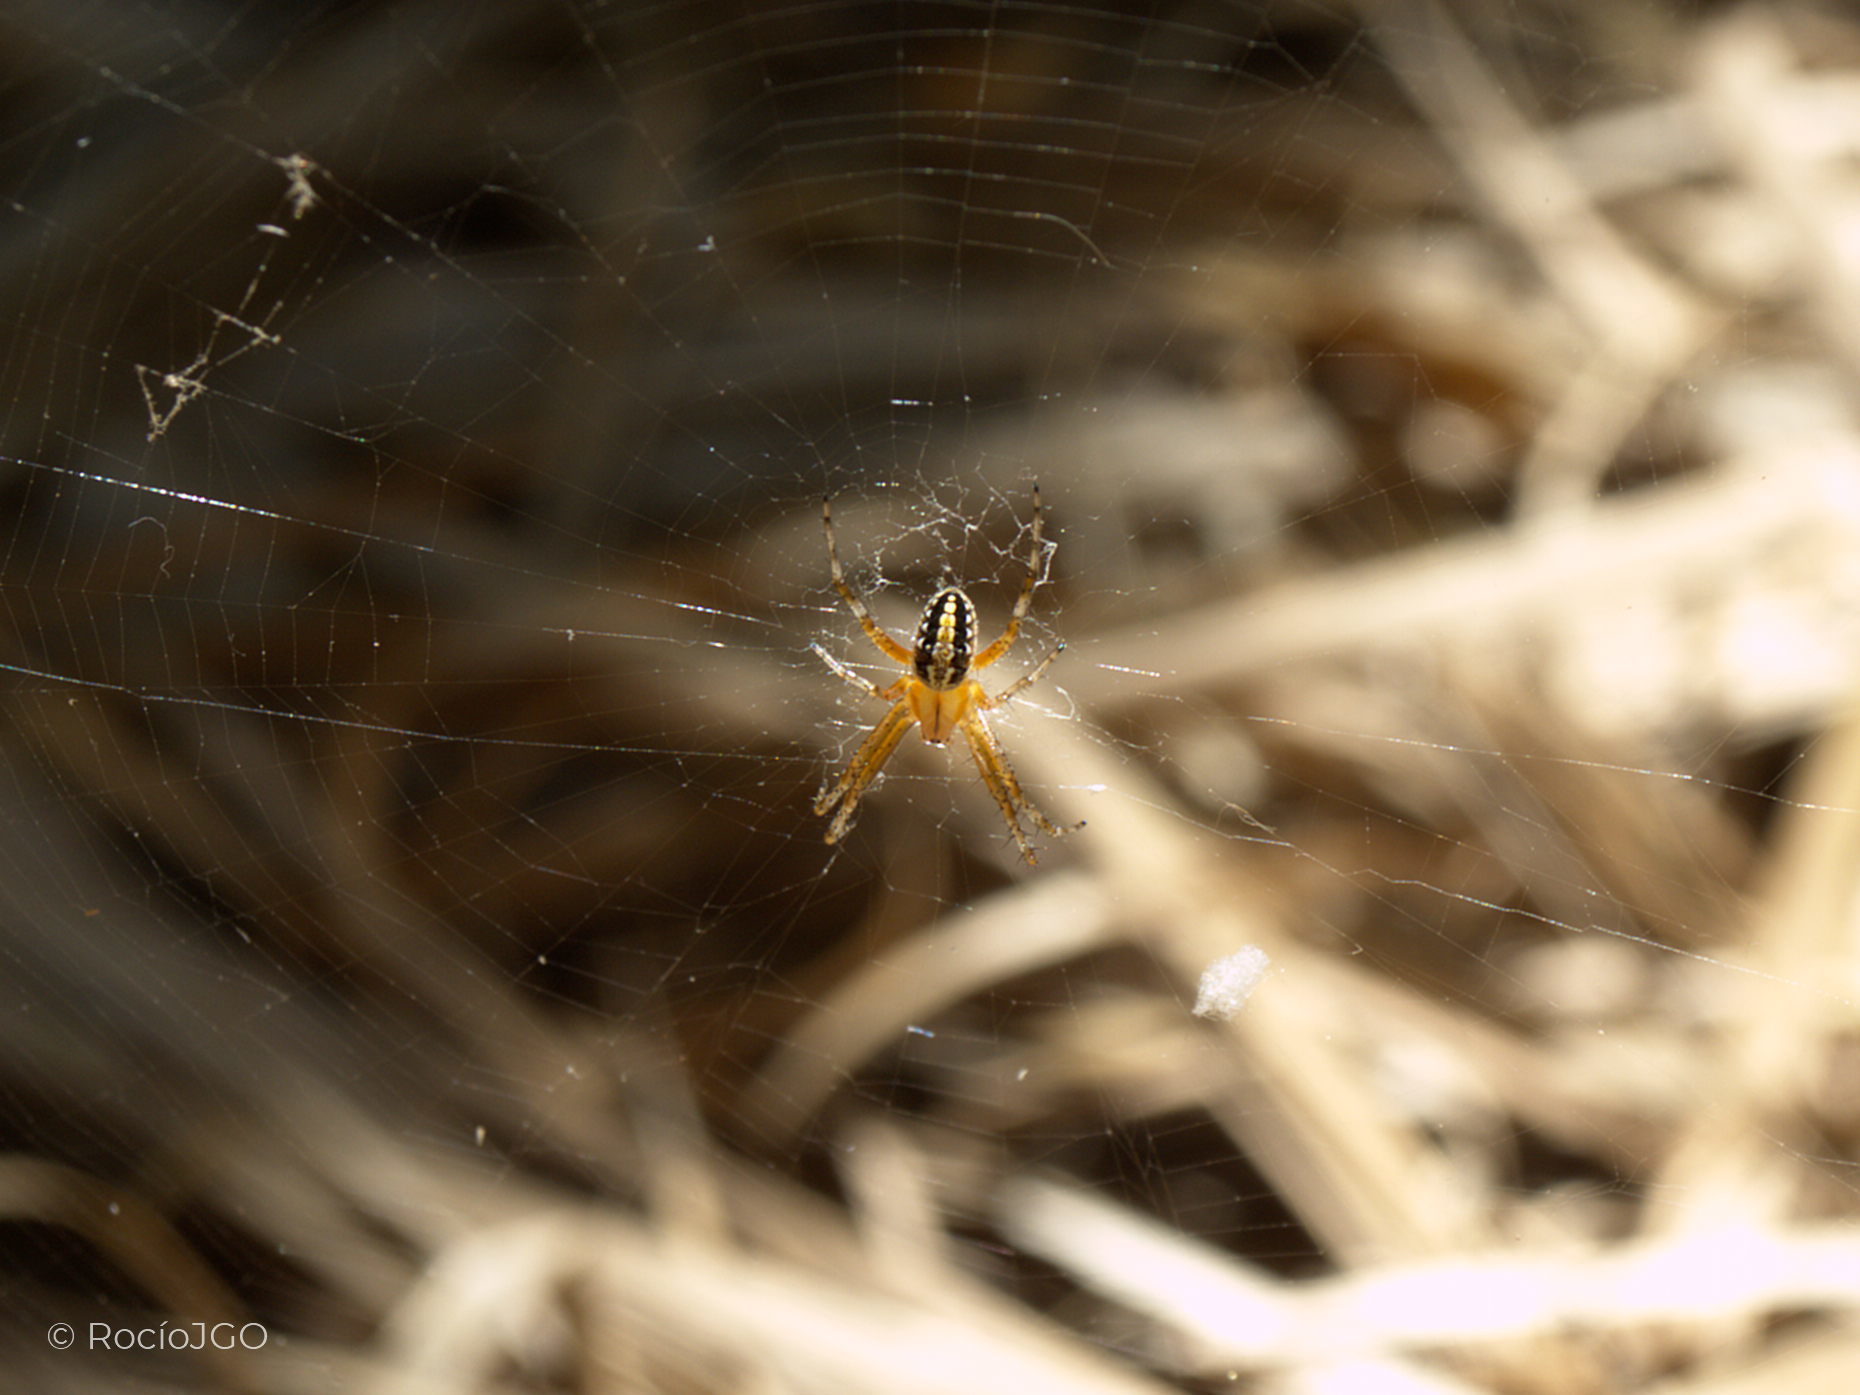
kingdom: Animalia
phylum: Arthropoda
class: Arachnida
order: Araneae
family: Araneidae
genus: Neoscona
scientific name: Neoscona oaxacensis
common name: Orb weavers
